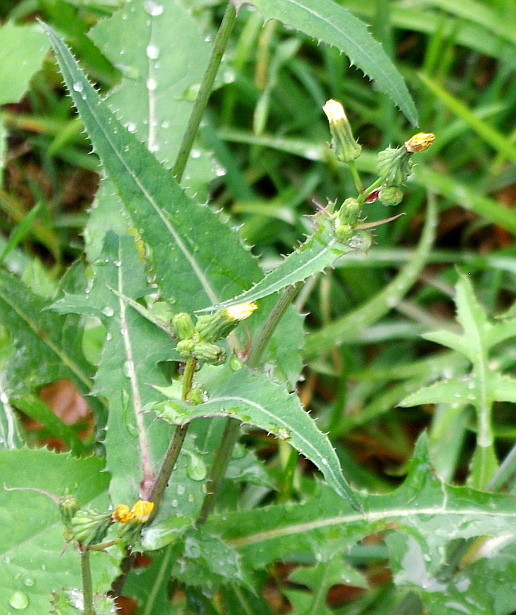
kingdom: Plantae
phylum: Tracheophyta
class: Magnoliopsida
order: Asterales
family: Asteraceae
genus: Sonchus
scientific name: Sonchus oleraceus
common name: Common sowthistle
